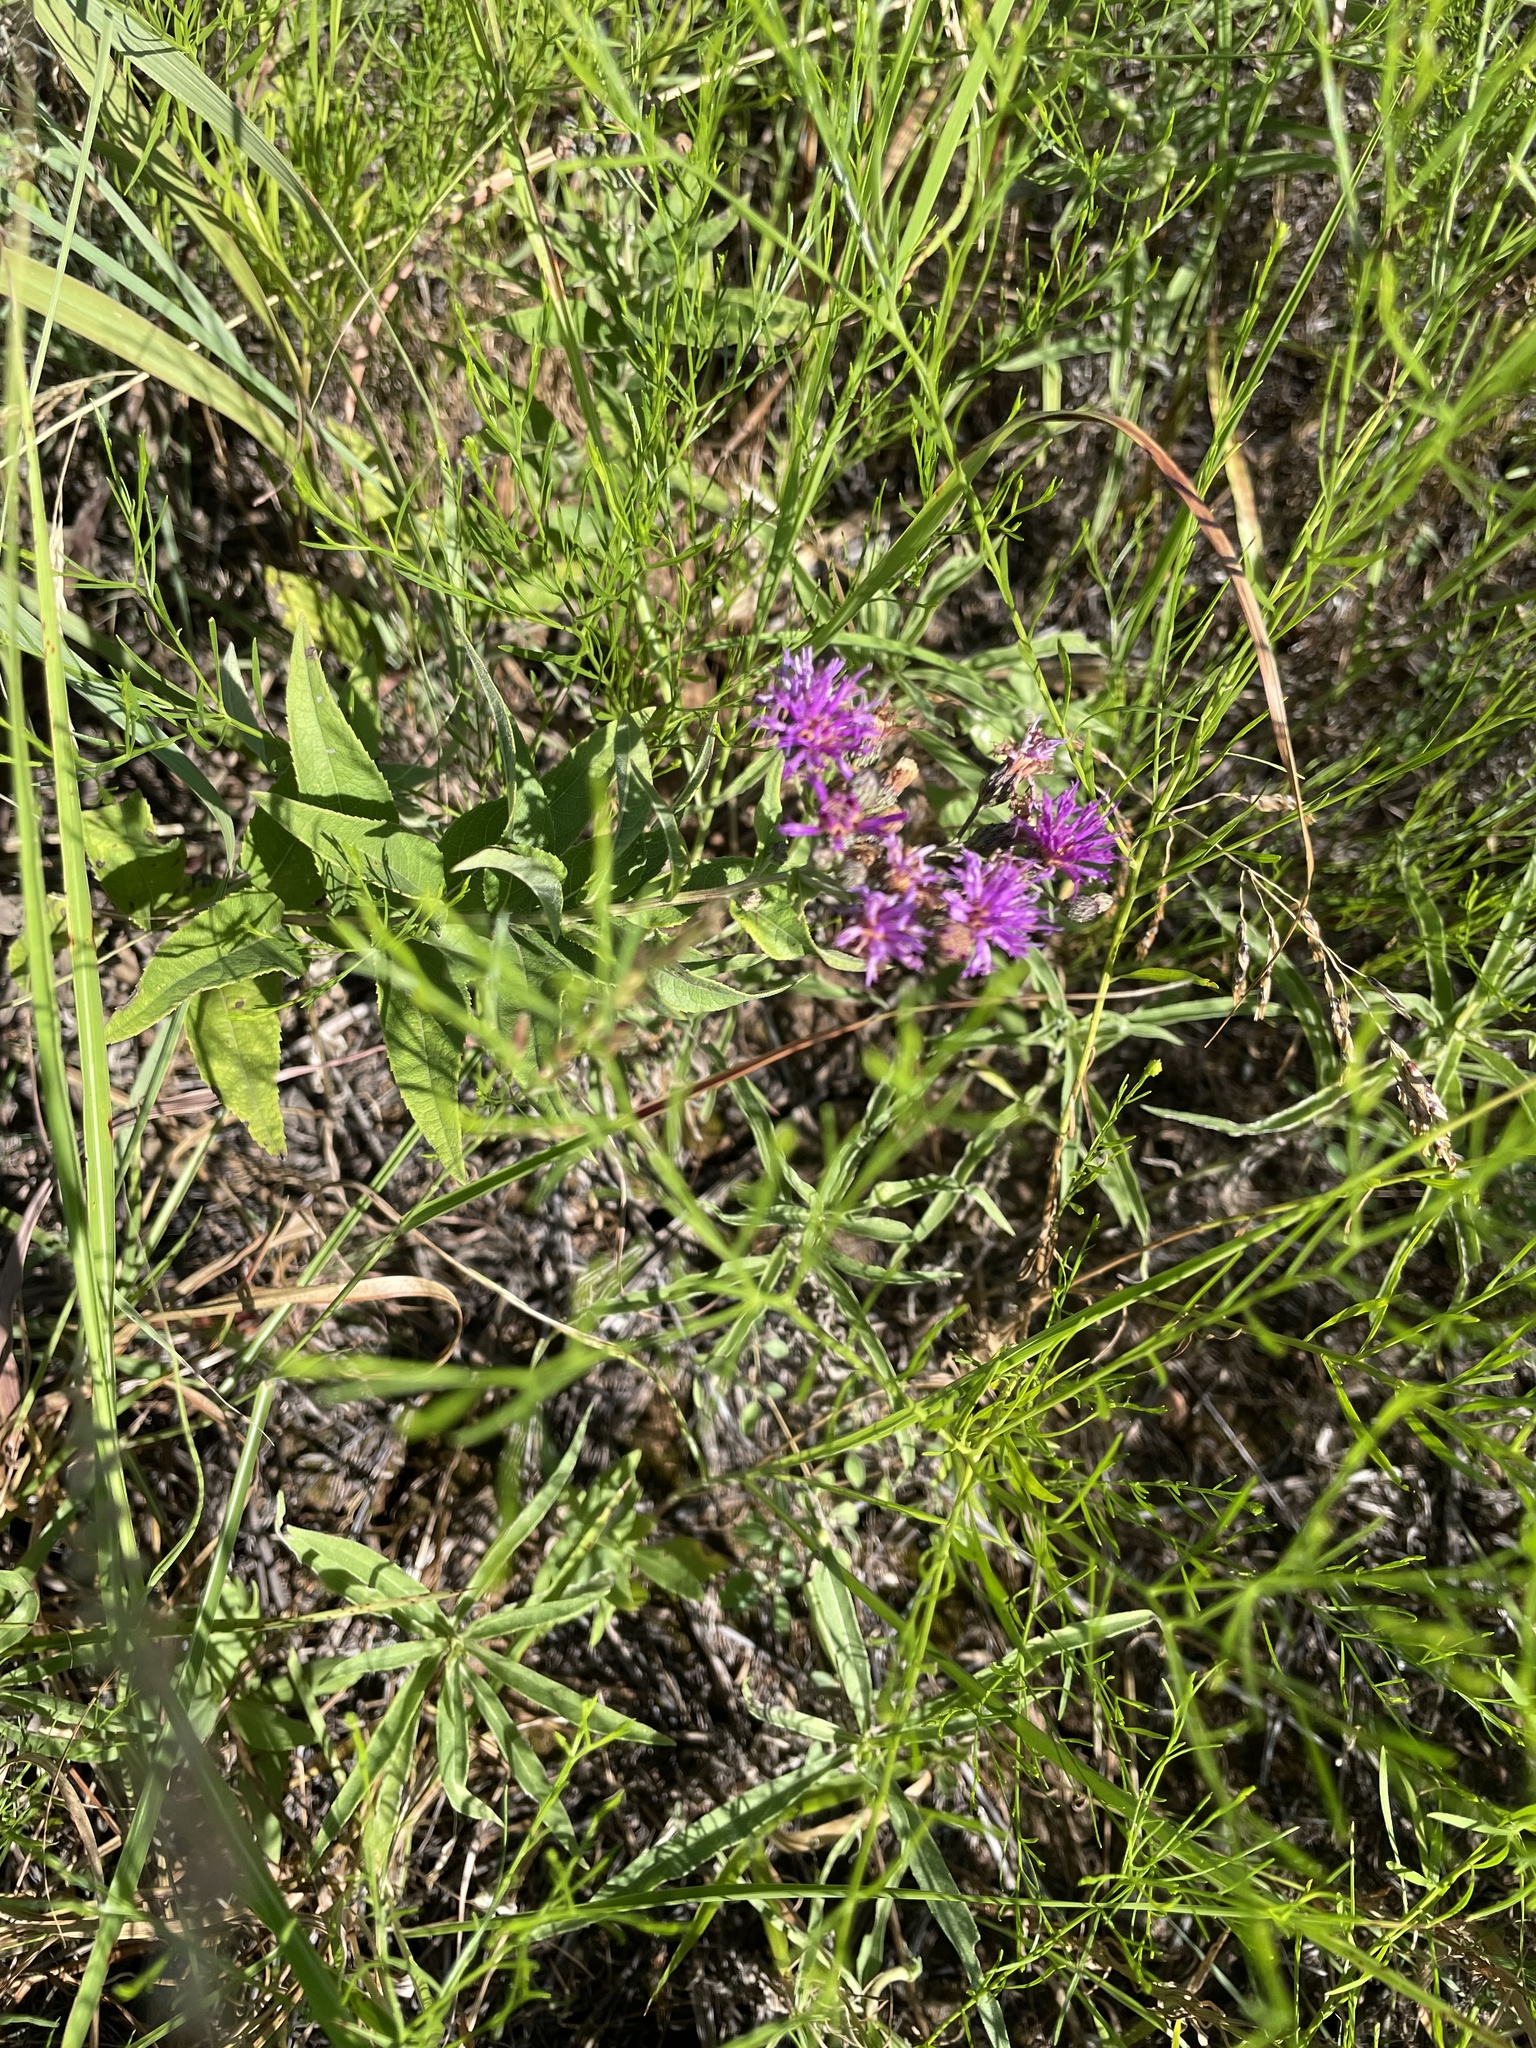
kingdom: Plantae
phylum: Tracheophyta
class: Magnoliopsida
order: Asterales
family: Asteraceae
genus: Vernonia
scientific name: Vernonia baldwinii
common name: Western ironweed
